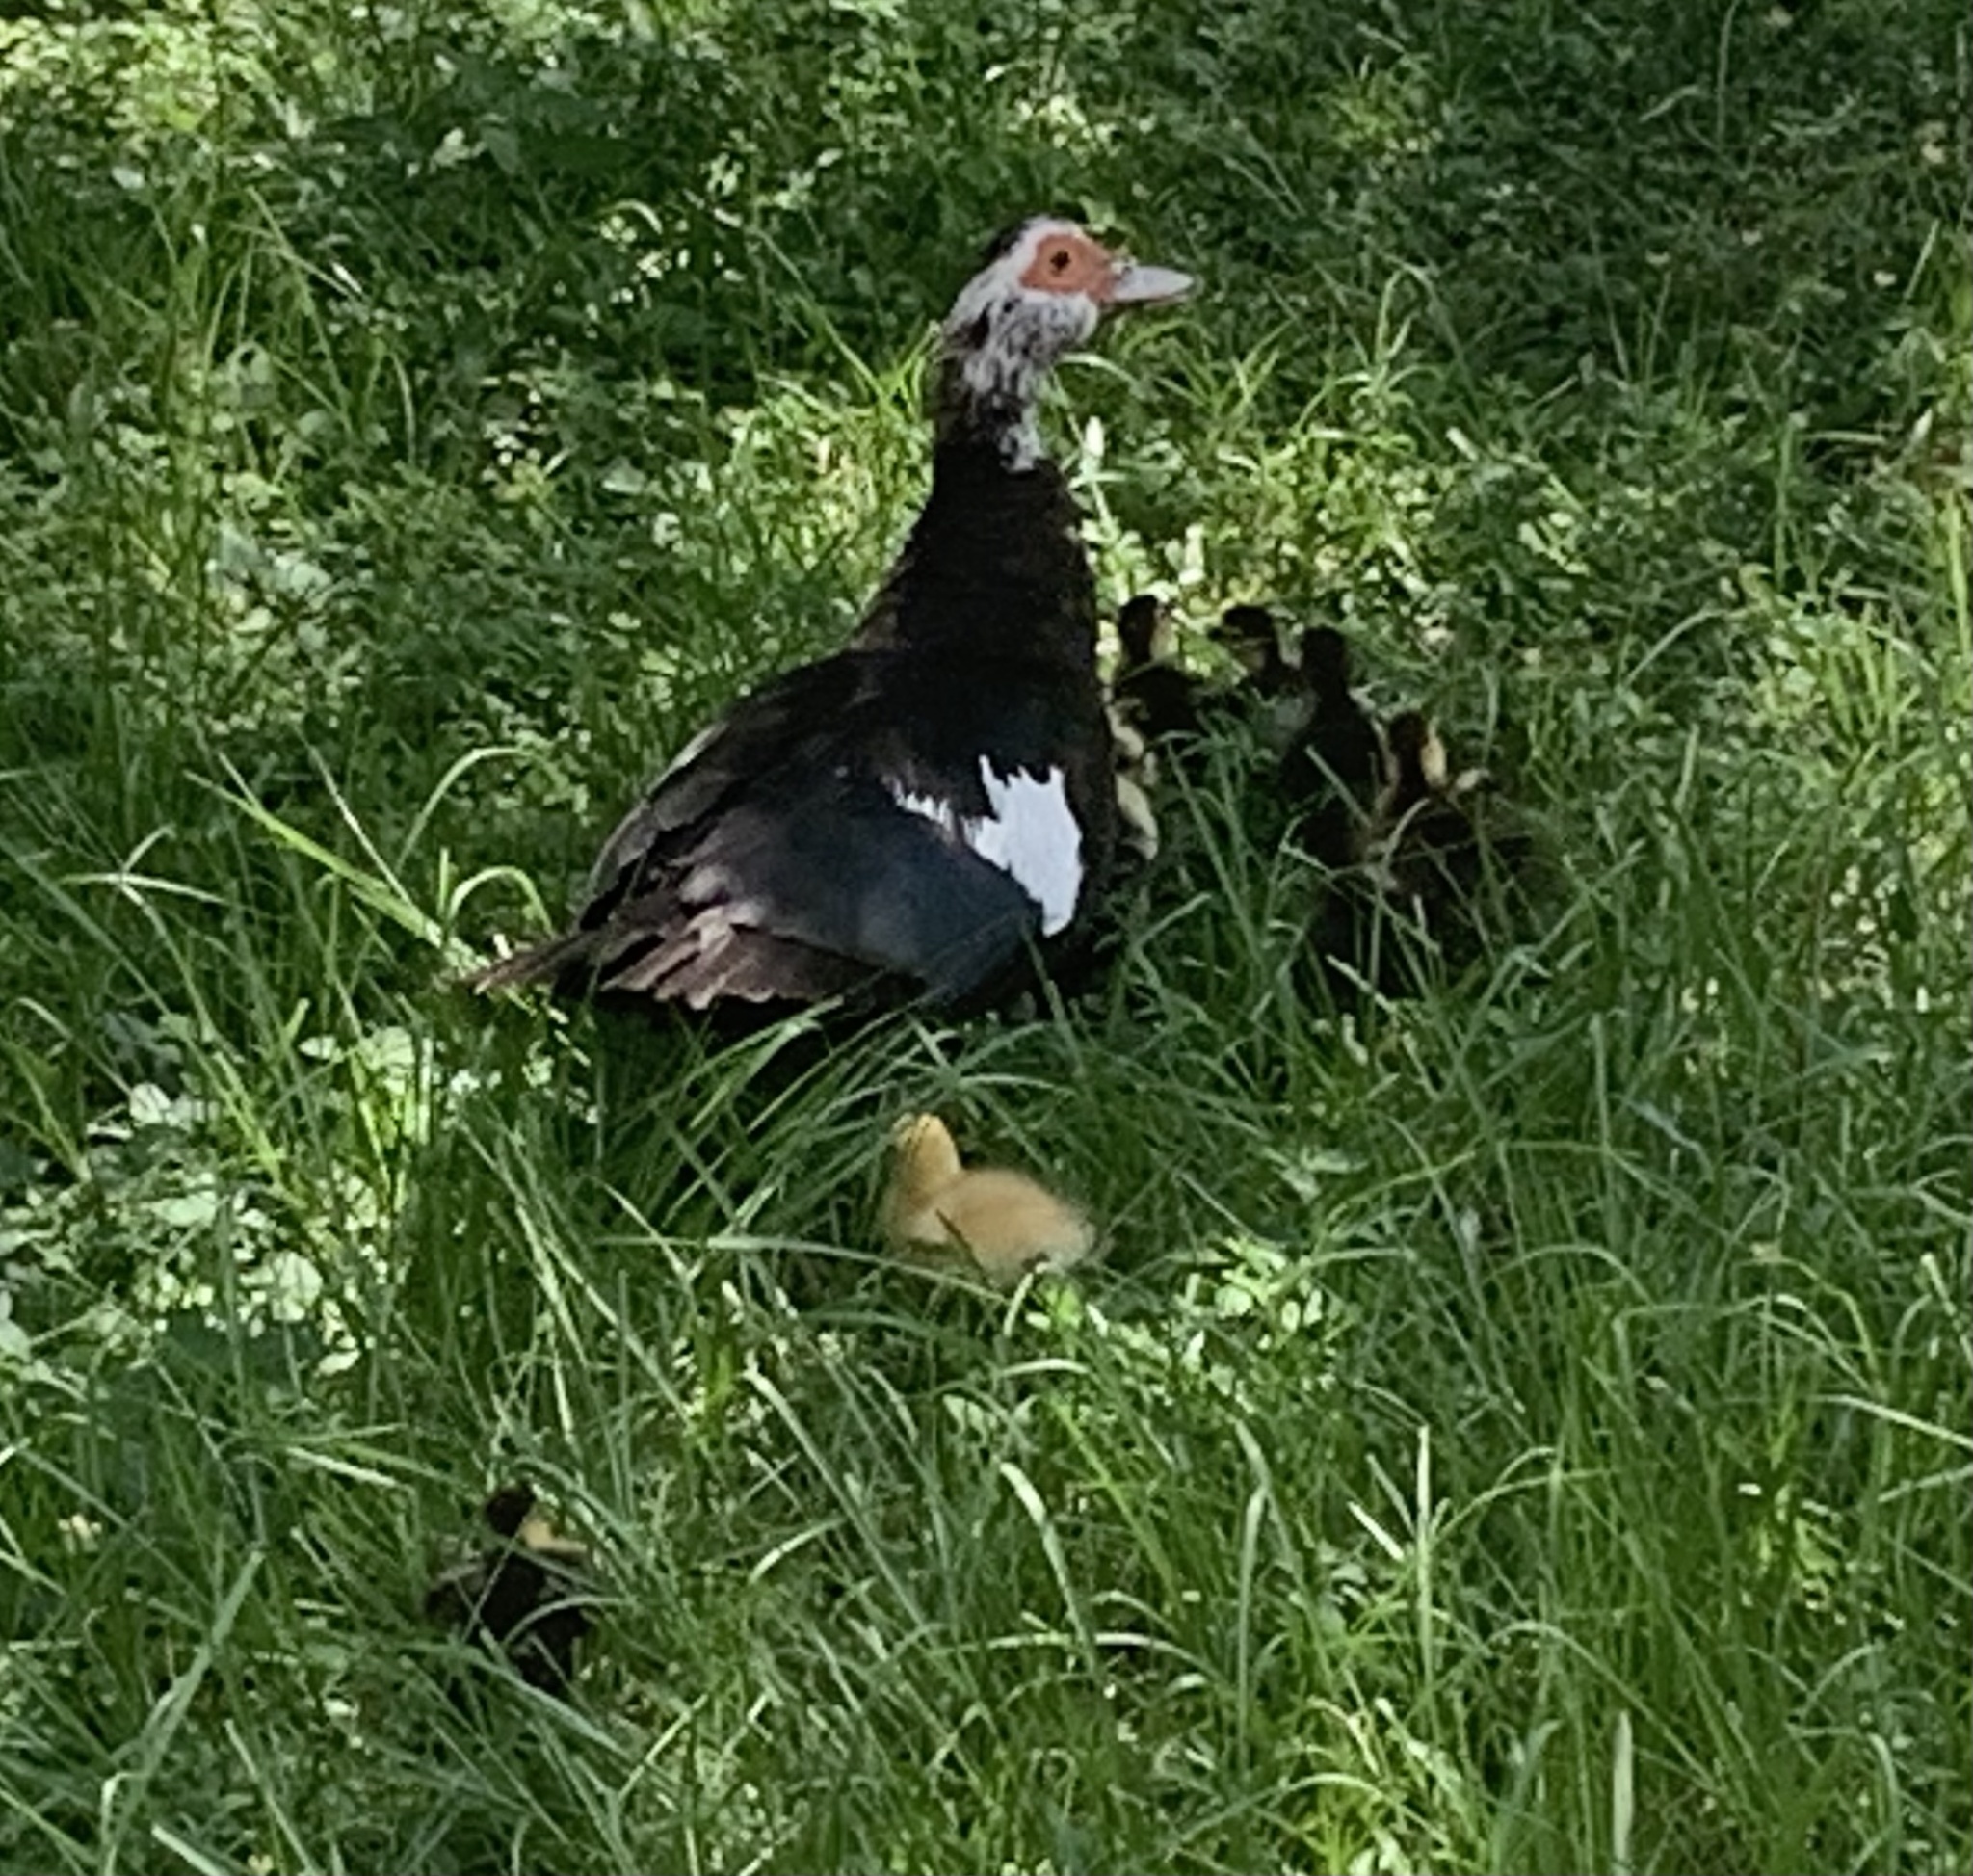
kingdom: Animalia
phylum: Chordata
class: Aves
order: Anseriformes
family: Anatidae
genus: Cairina
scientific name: Cairina moschata
